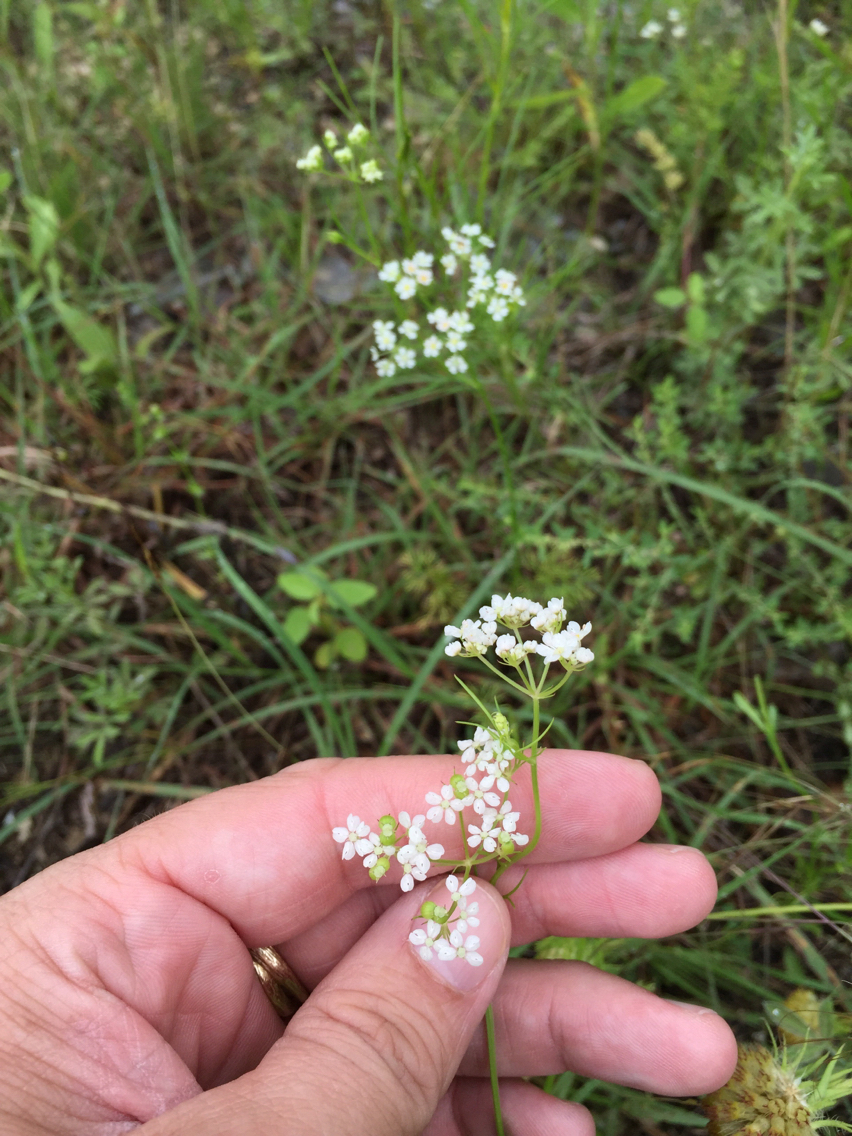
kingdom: Plantae
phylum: Tracheophyta
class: Magnoliopsida
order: Apiales
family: Apiaceae
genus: Atrema
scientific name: Atrema americanum
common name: Prairie-bishop
